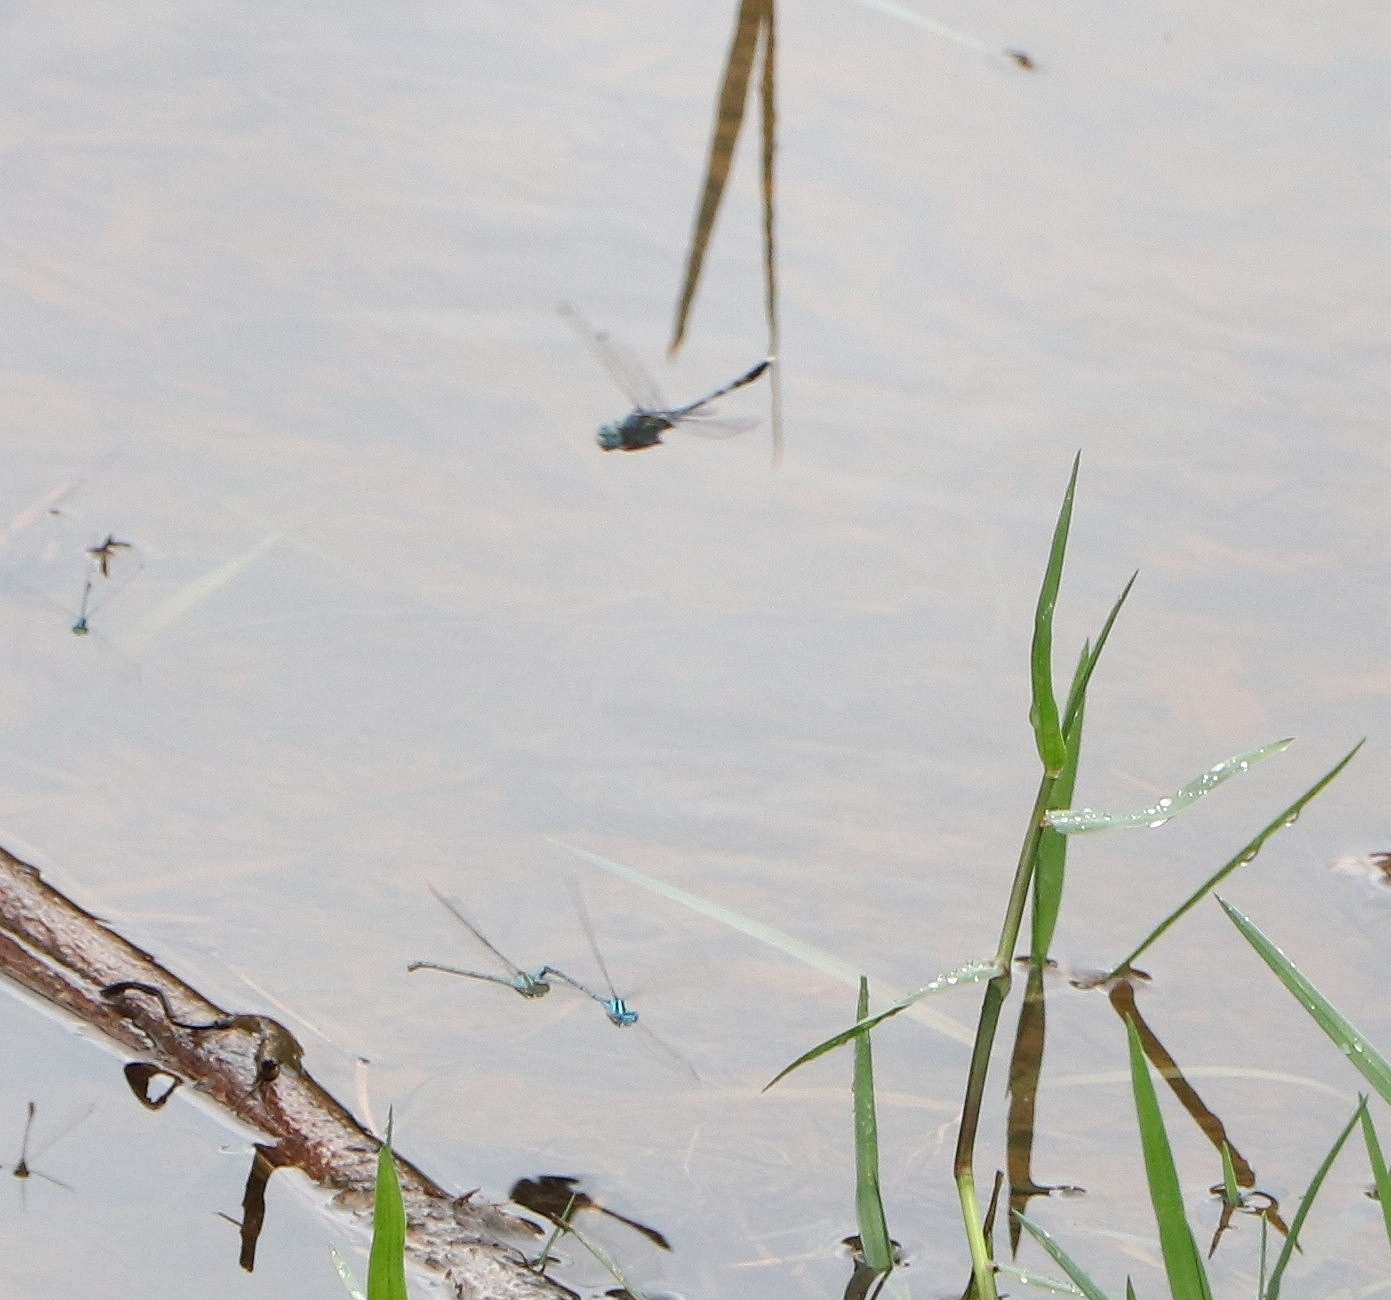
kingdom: Animalia
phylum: Arthropoda
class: Insecta
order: Odonata
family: Libellulidae
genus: Diplacodes
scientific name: Diplacodes trivialis
